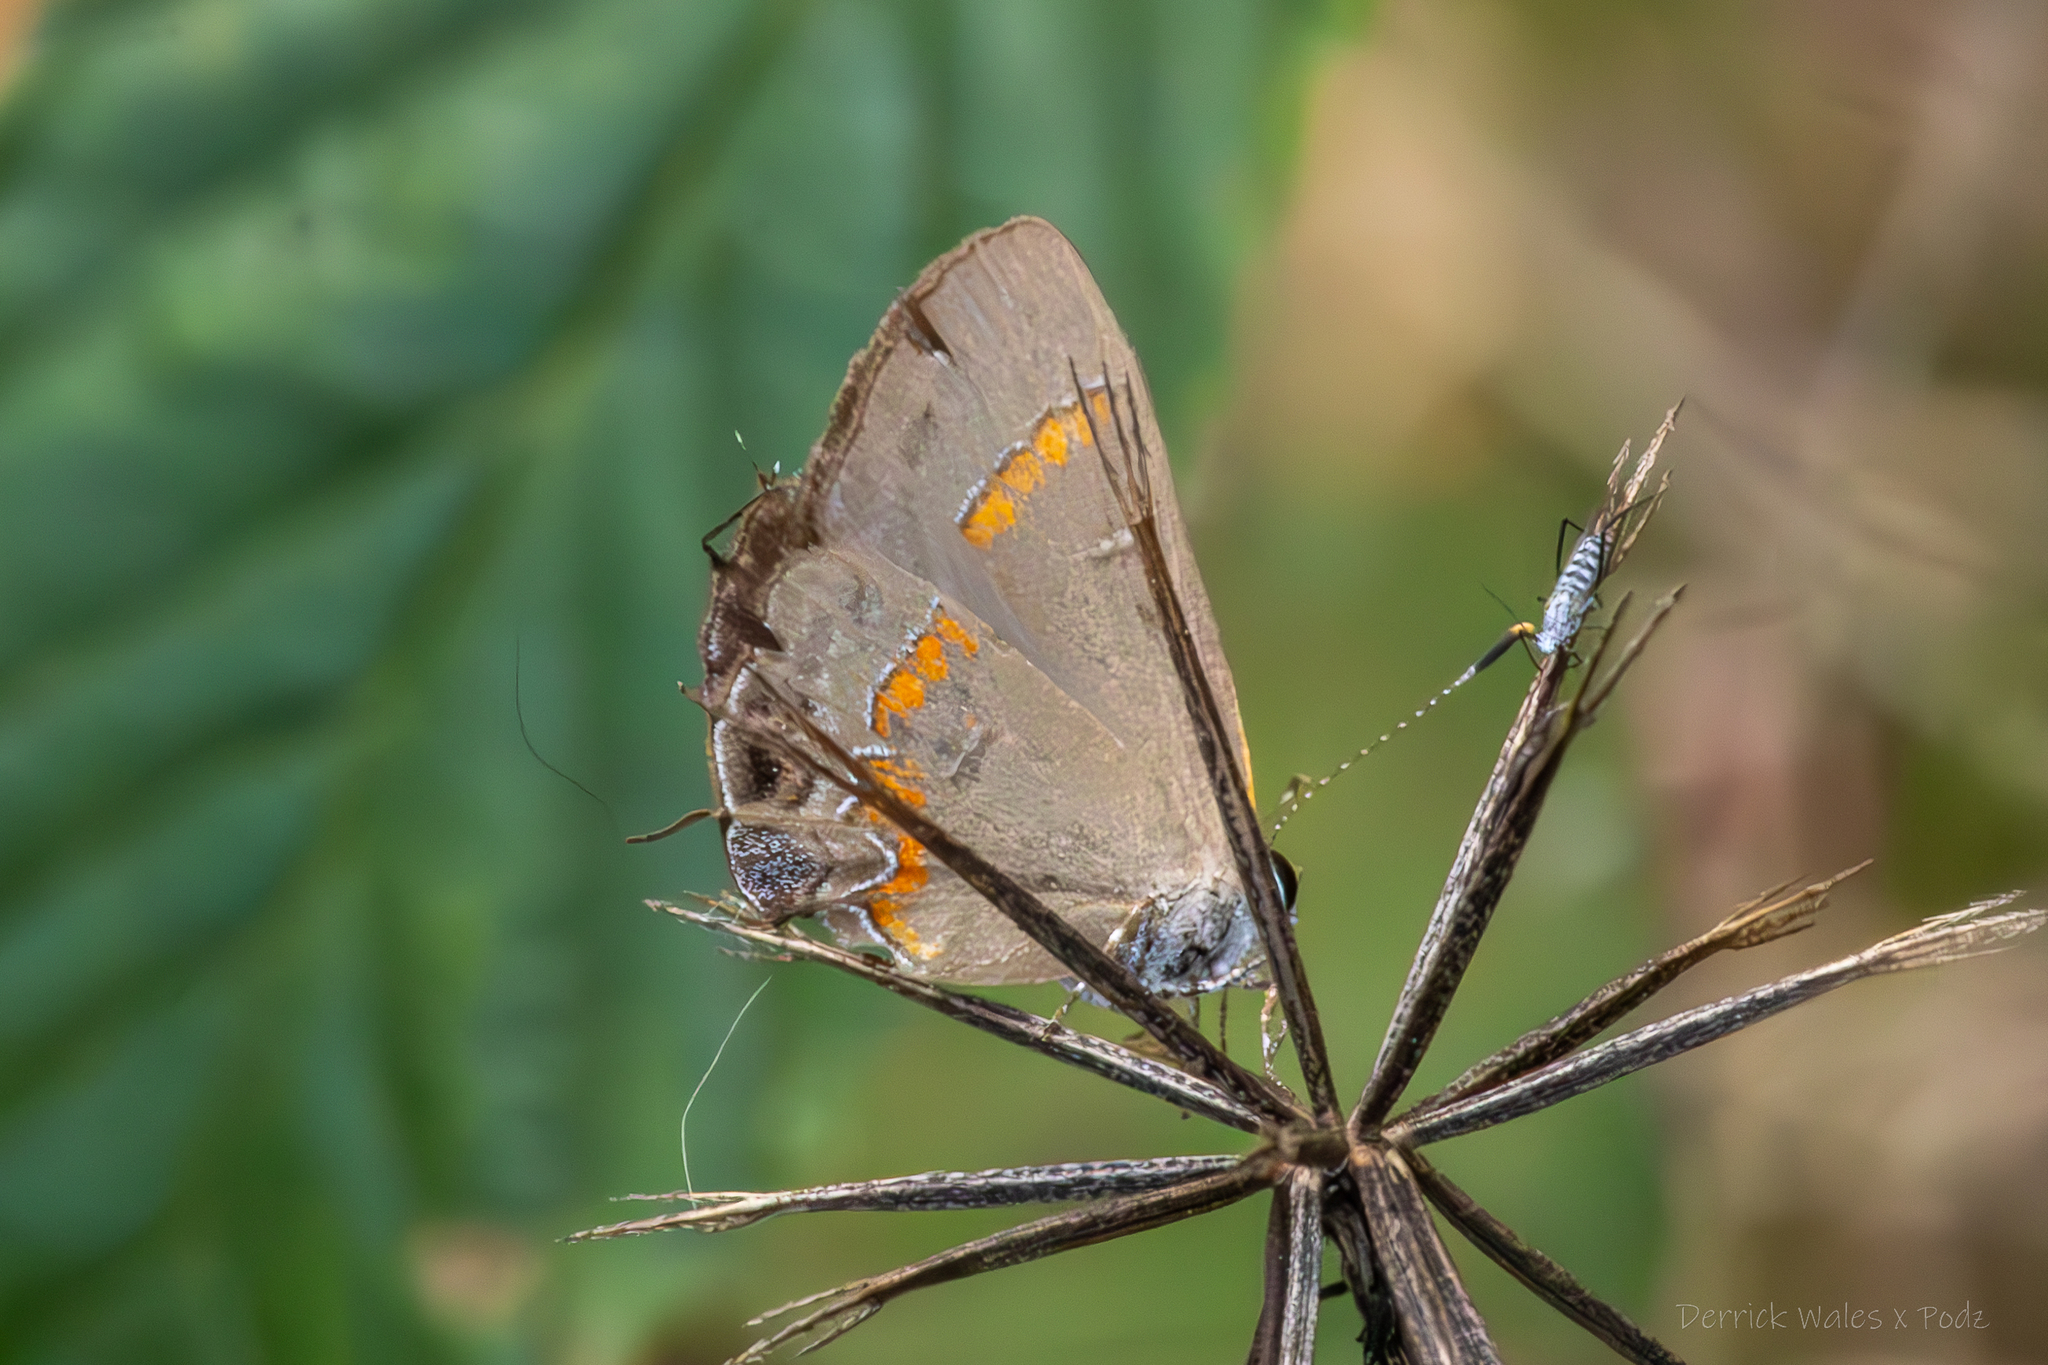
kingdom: Animalia
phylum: Arthropoda
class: Insecta
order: Lepidoptera
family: Lycaenidae
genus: Calycopis
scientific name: Calycopis cecrops
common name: Red-banded hairstreak
